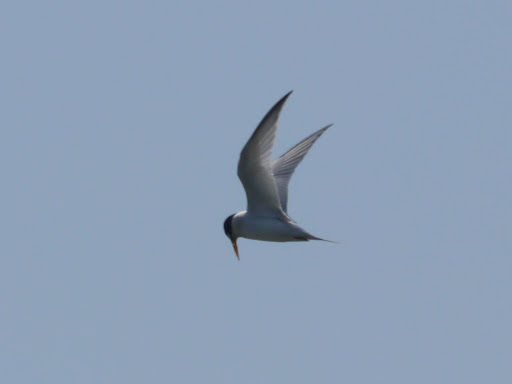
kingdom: Animalia
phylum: Chordata
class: Aves
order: Charadriiformes
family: Laridae
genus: Sternula
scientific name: Sternula antillarum
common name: Least tern
